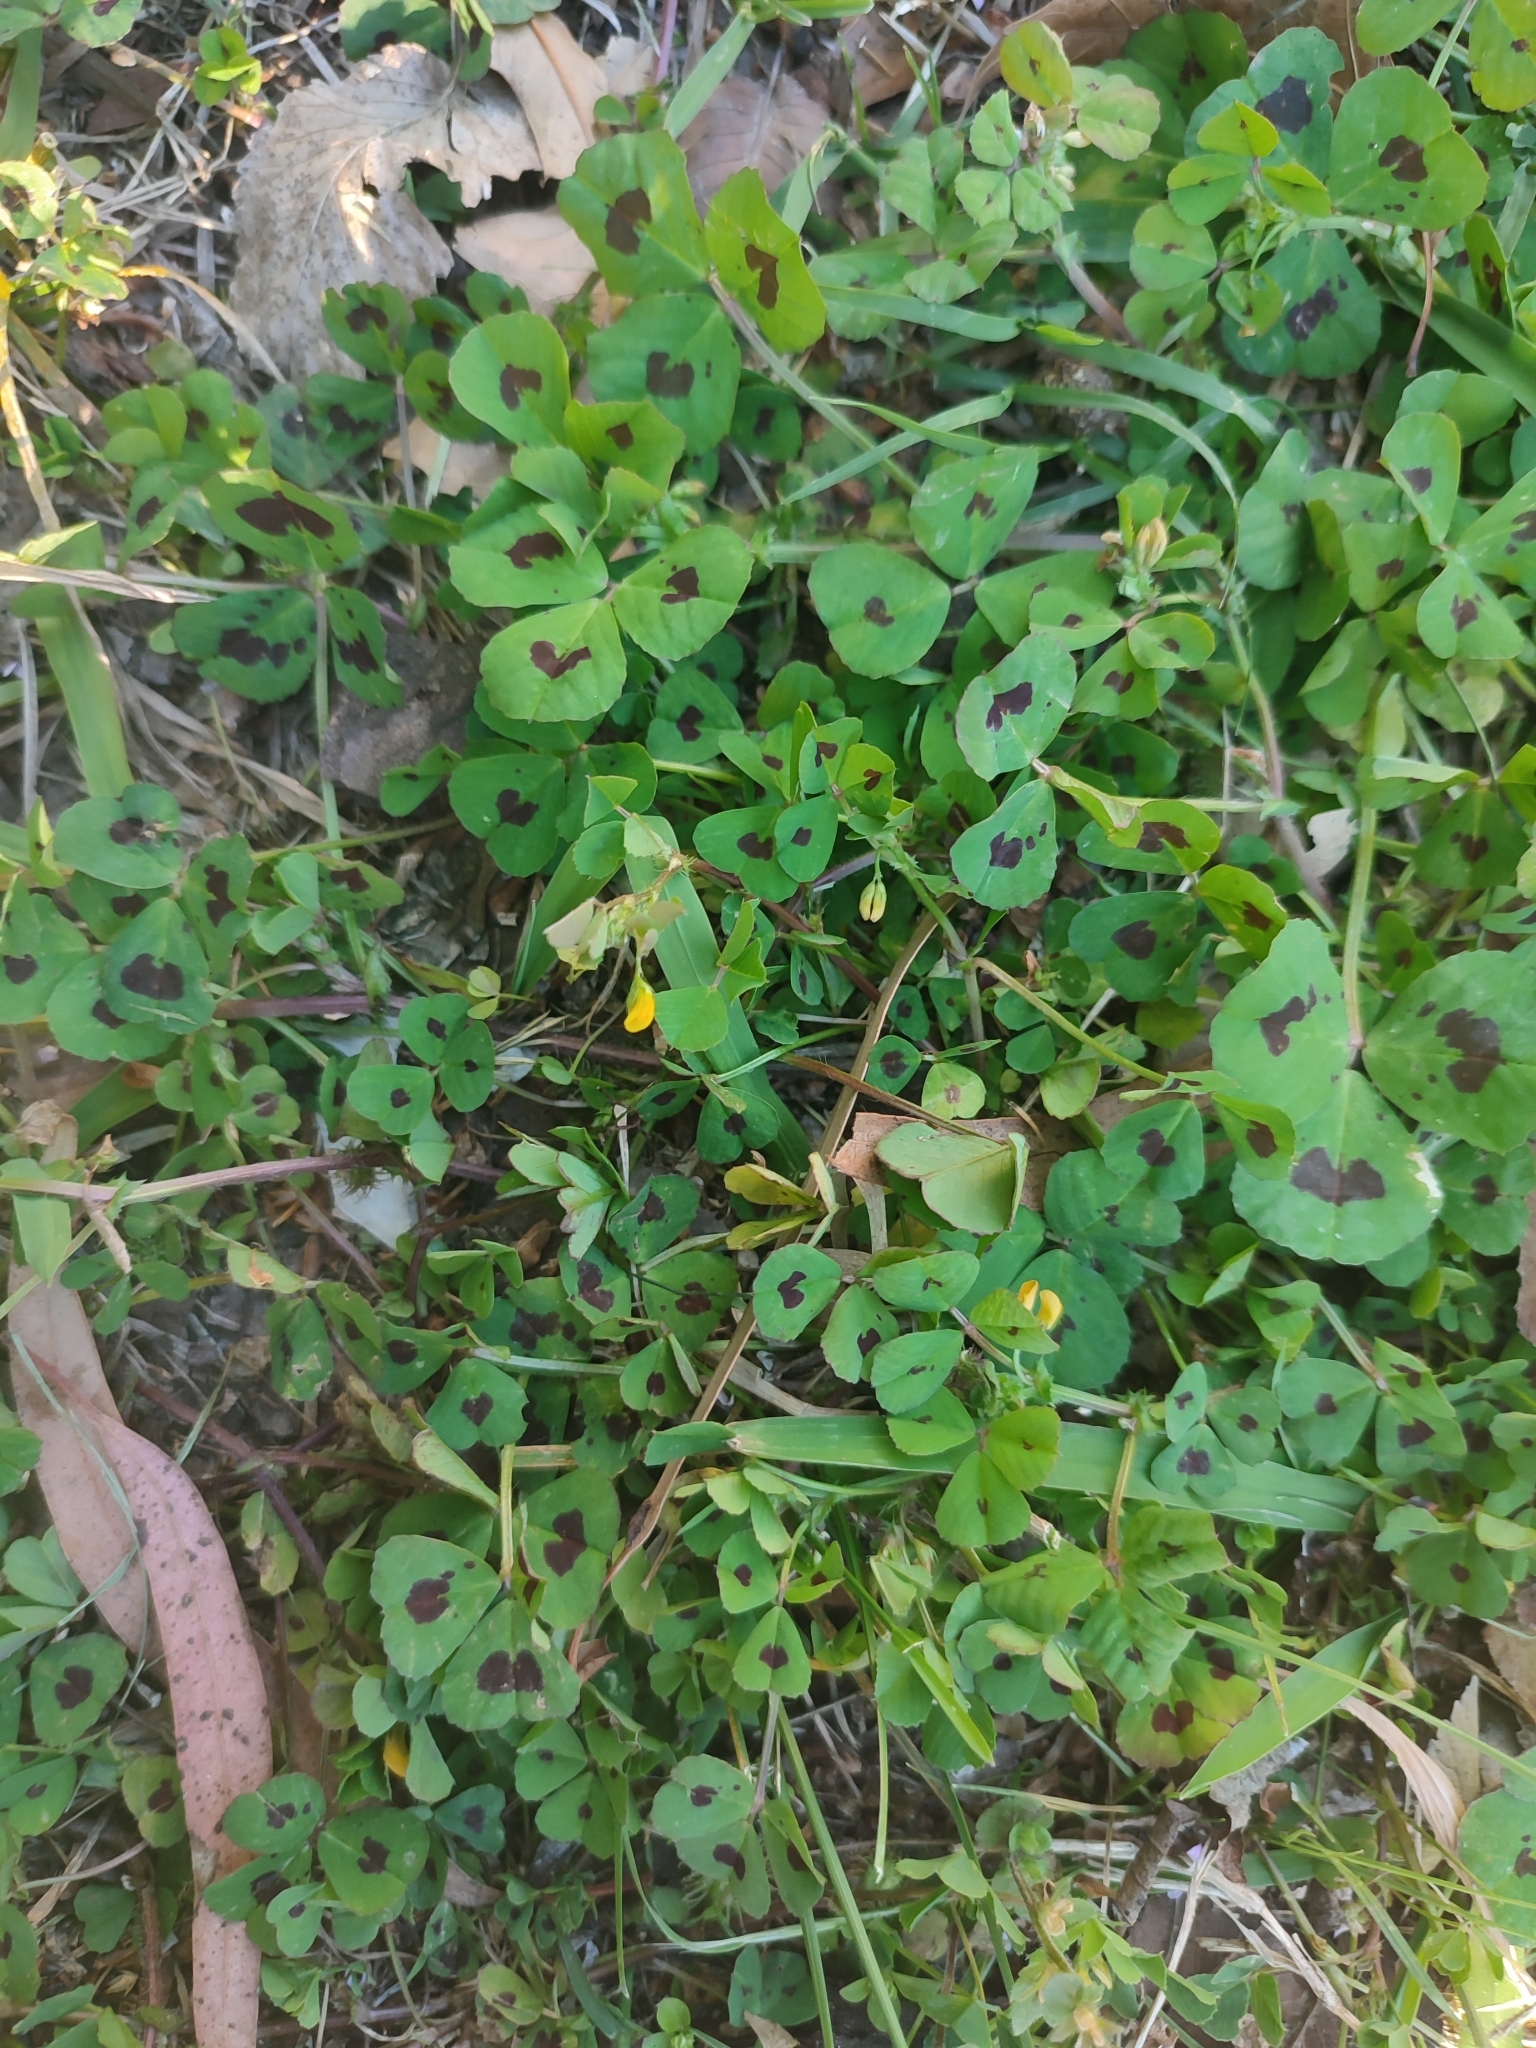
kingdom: Plantae
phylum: Tracheophyta
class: Magnoliopsida
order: Fabales
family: Fabaceae
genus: Medicago
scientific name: Medicago arabica
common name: Spotted medick
